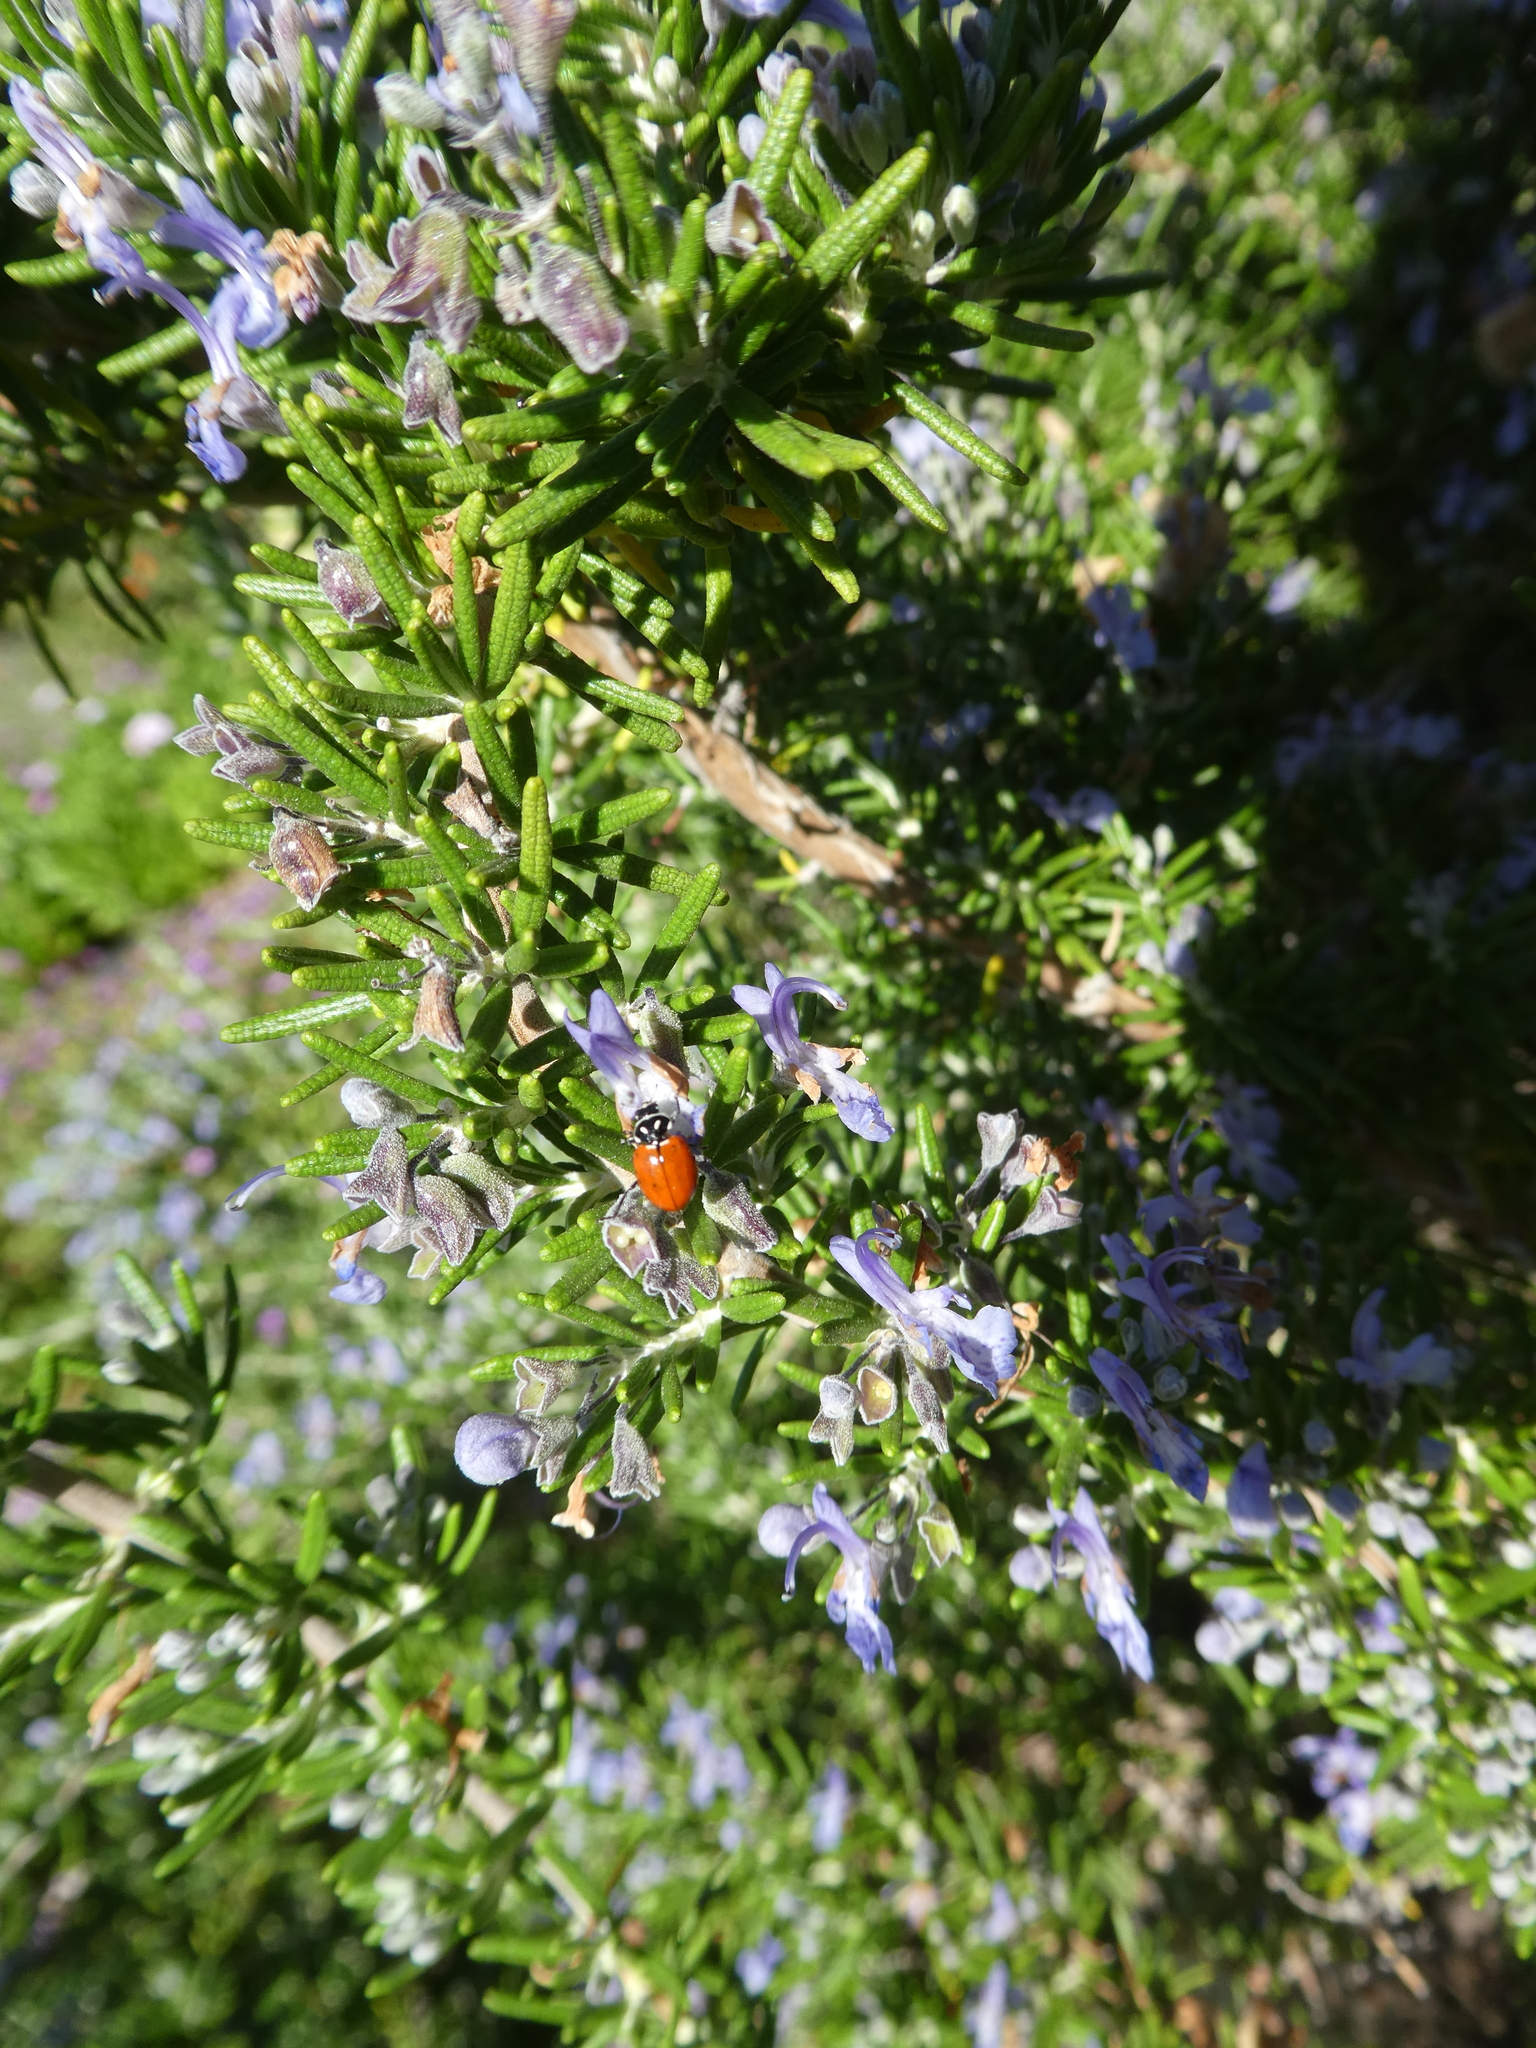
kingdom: Animalia
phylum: Arthropoda
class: Insecta
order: Coleoptera
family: Coccinellidae
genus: Hippodamia
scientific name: Hippodamia convergens
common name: Convergent lady beetle
